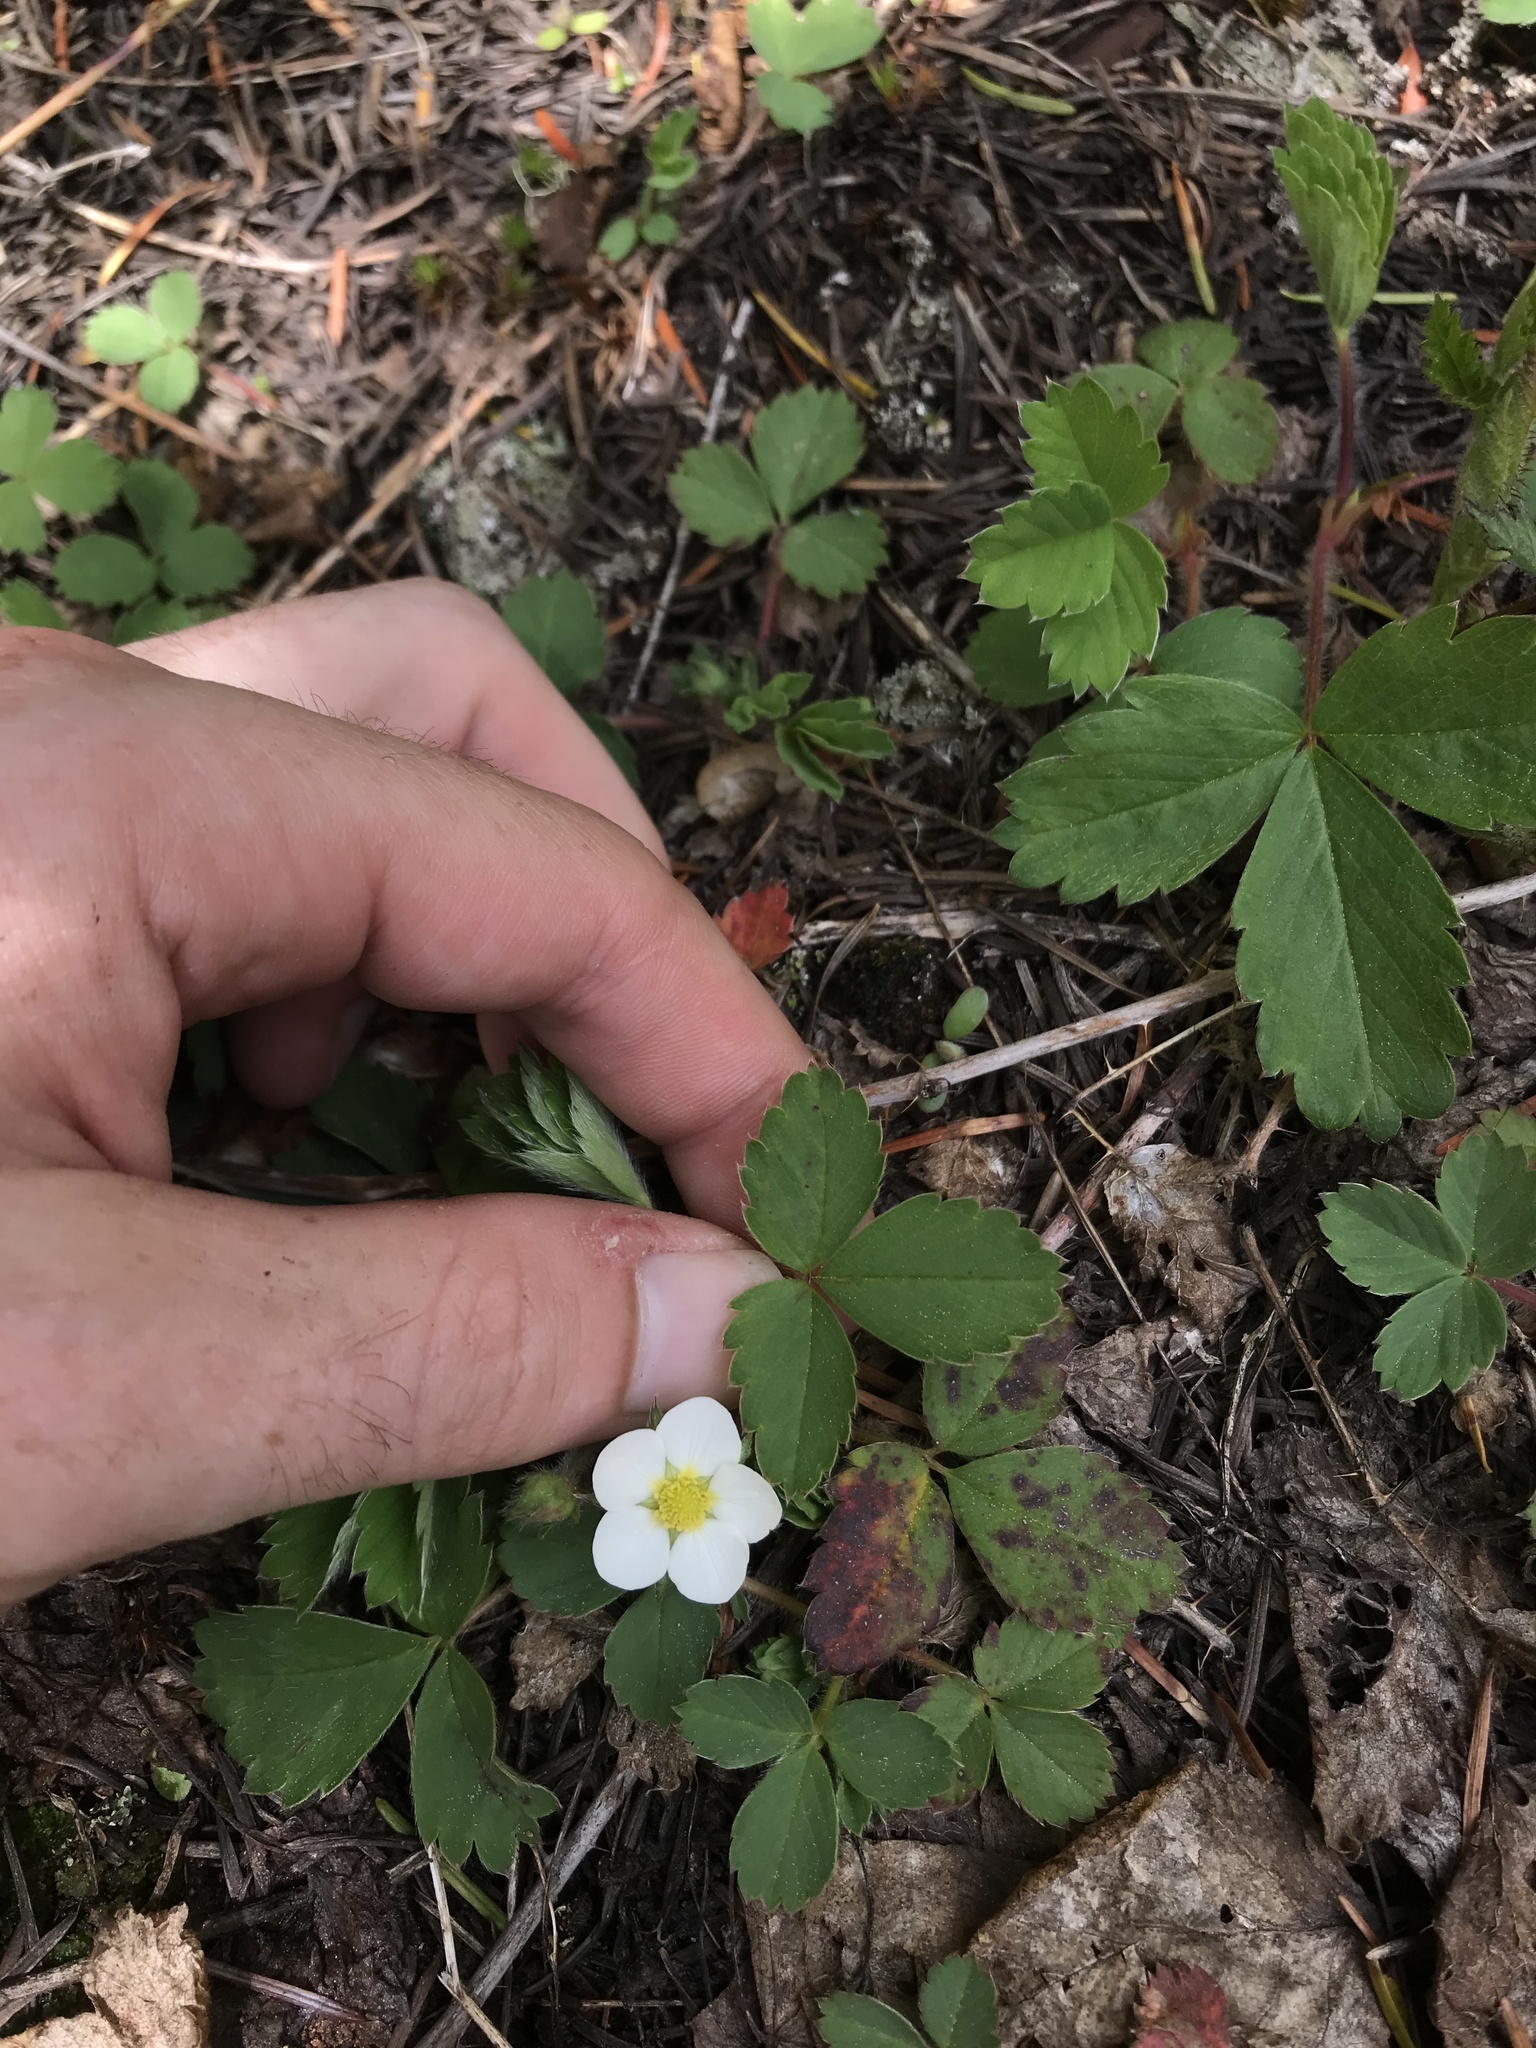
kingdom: Plantae
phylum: Tracheophyta
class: Magnoliopsida
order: Rosales
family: Rosaceae
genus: Fragaria
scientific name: Fragaria cascadensis
